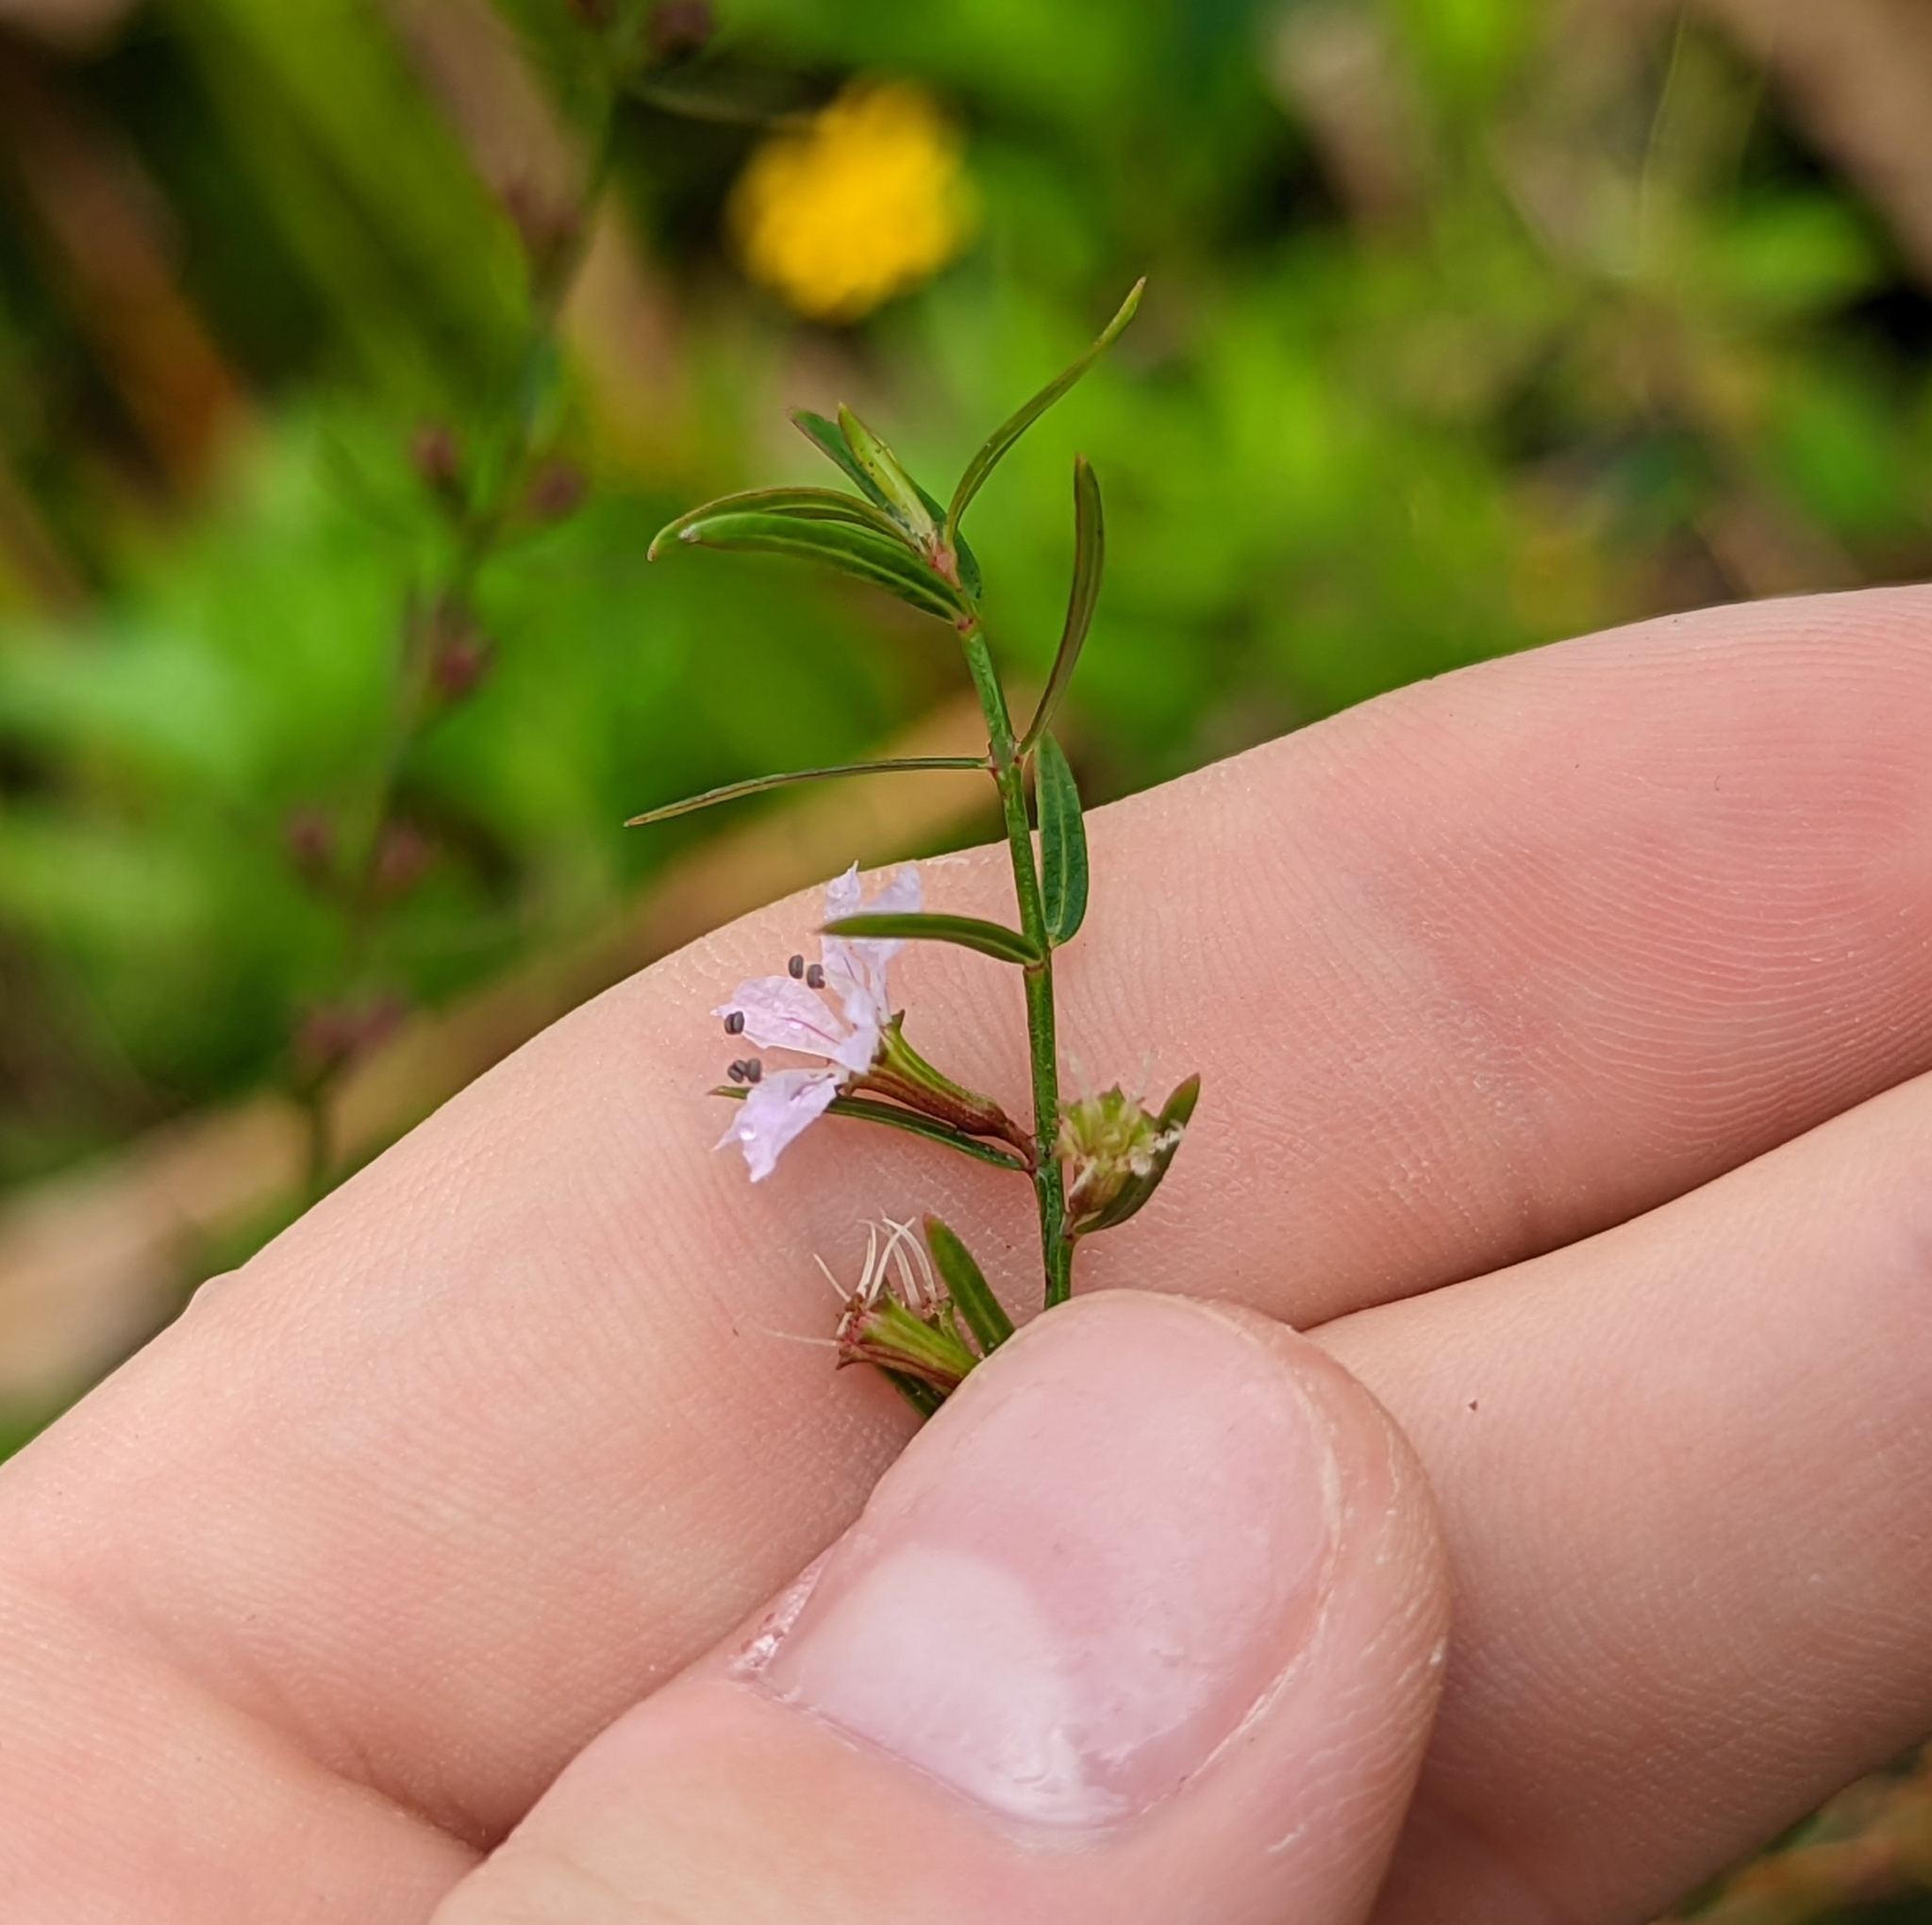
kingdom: Plantae
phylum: Tracheophyta
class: Magnoliopsida
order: Myrtales
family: Lythraceae
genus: Lythrum
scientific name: Lythrum lineare
